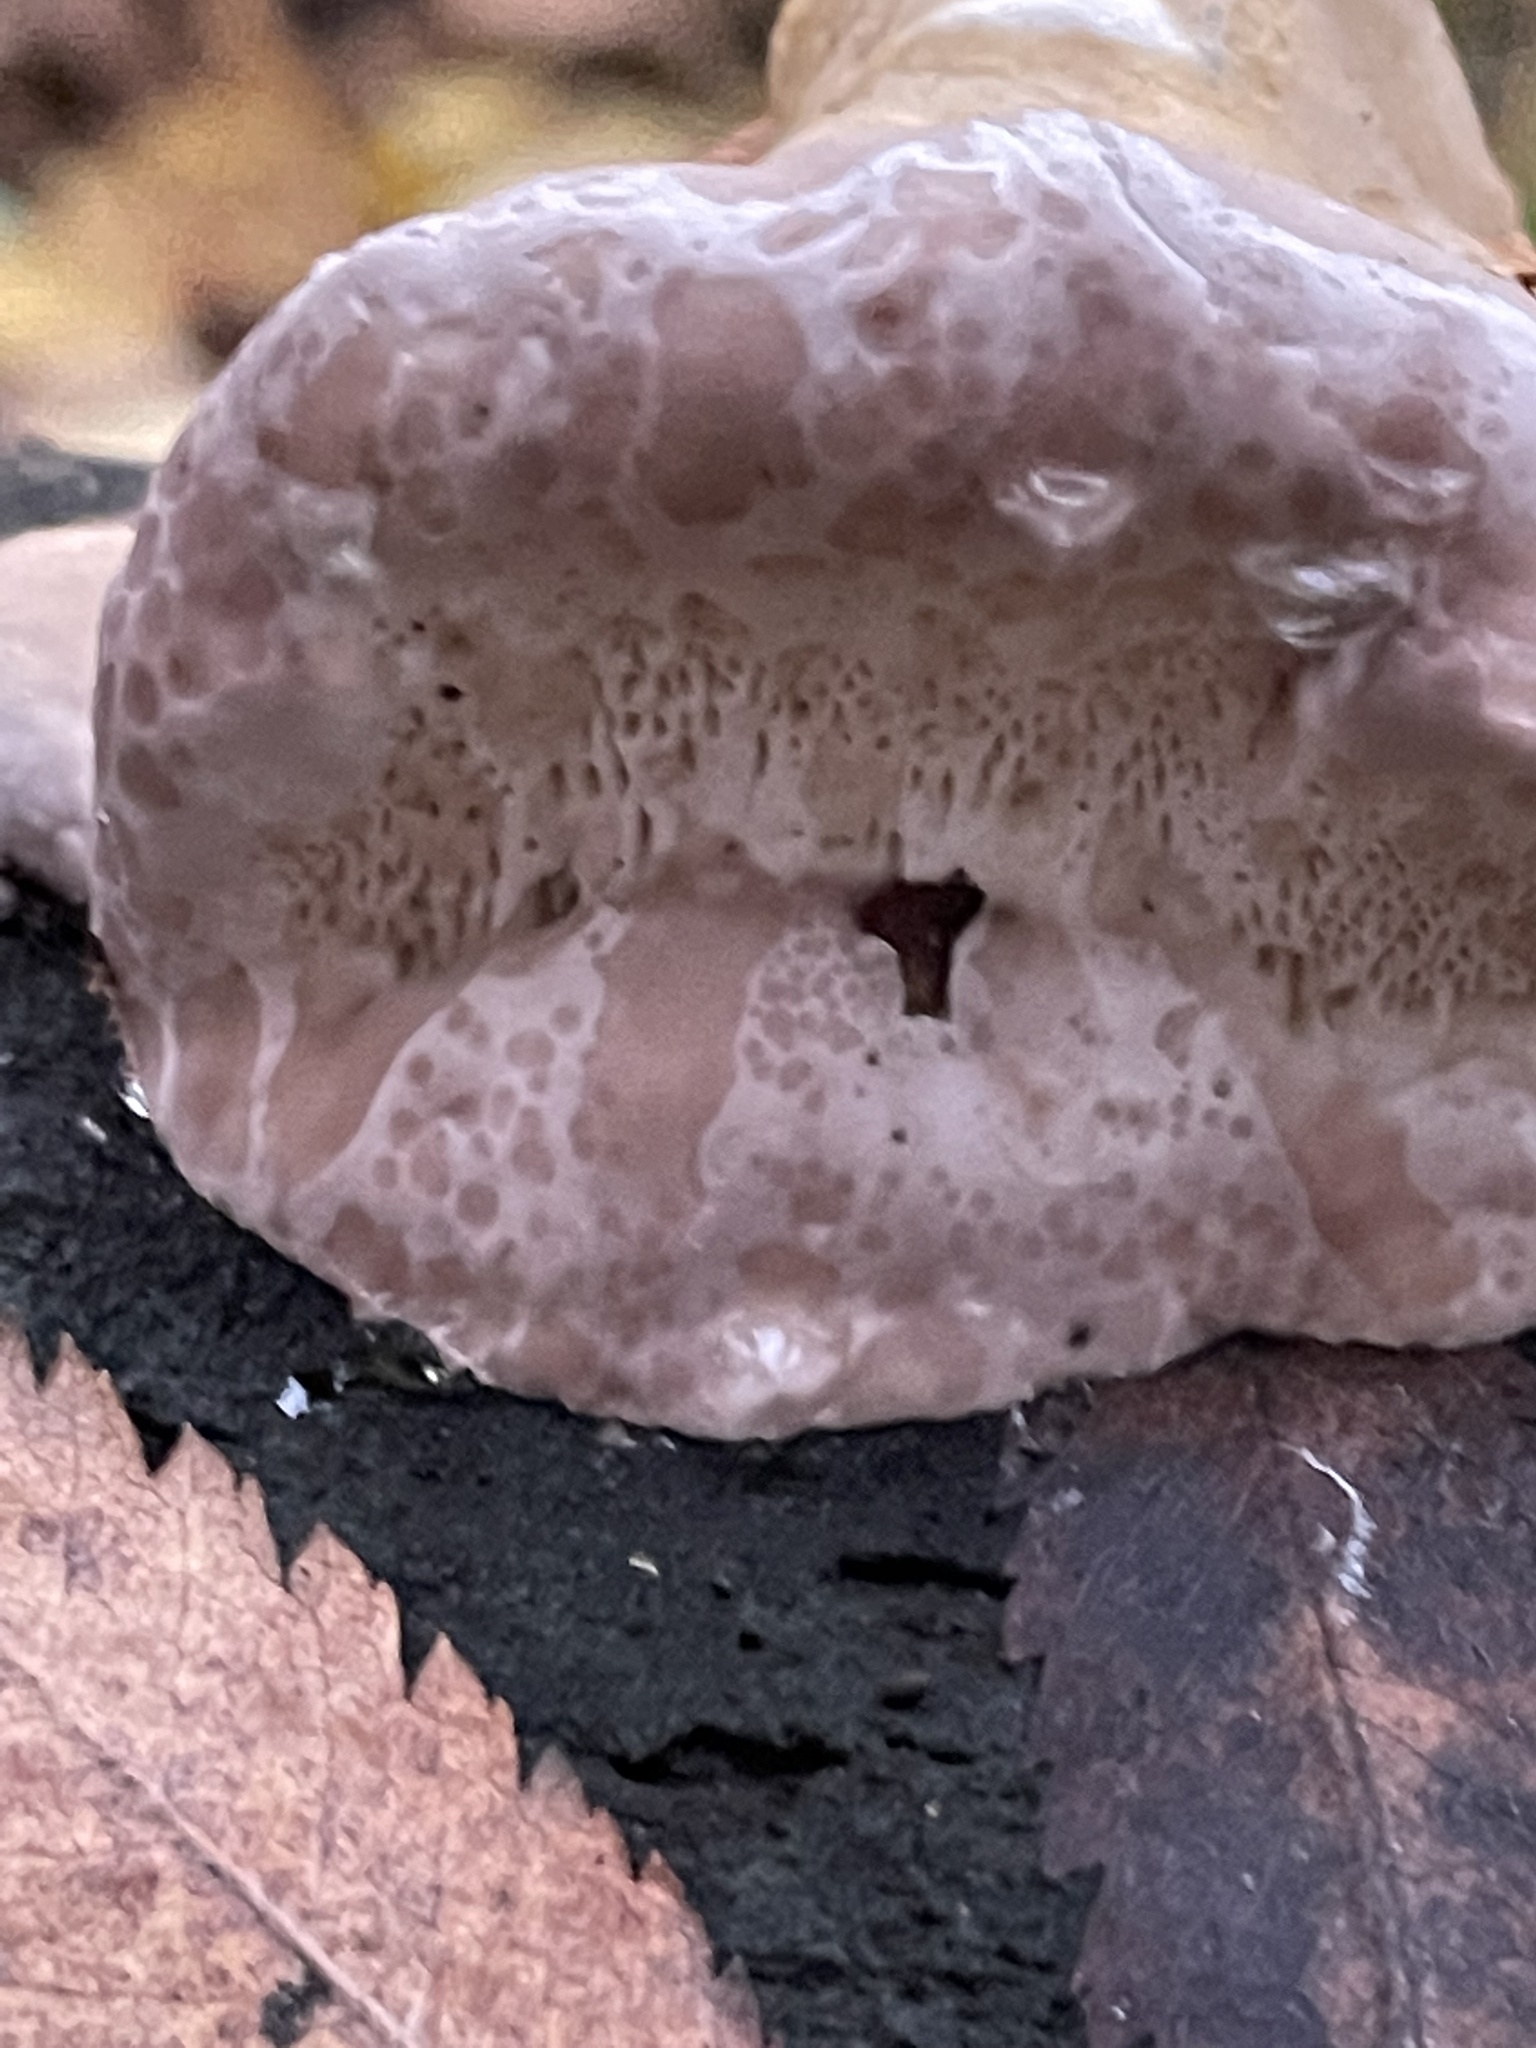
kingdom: Fungi
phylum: Basidiomycota
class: Agaricomycetes
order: Polyporales
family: Fomitopsidaceae
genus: Fomitopsis
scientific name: Fomitopsis pinicola
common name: Red-belted bracket
